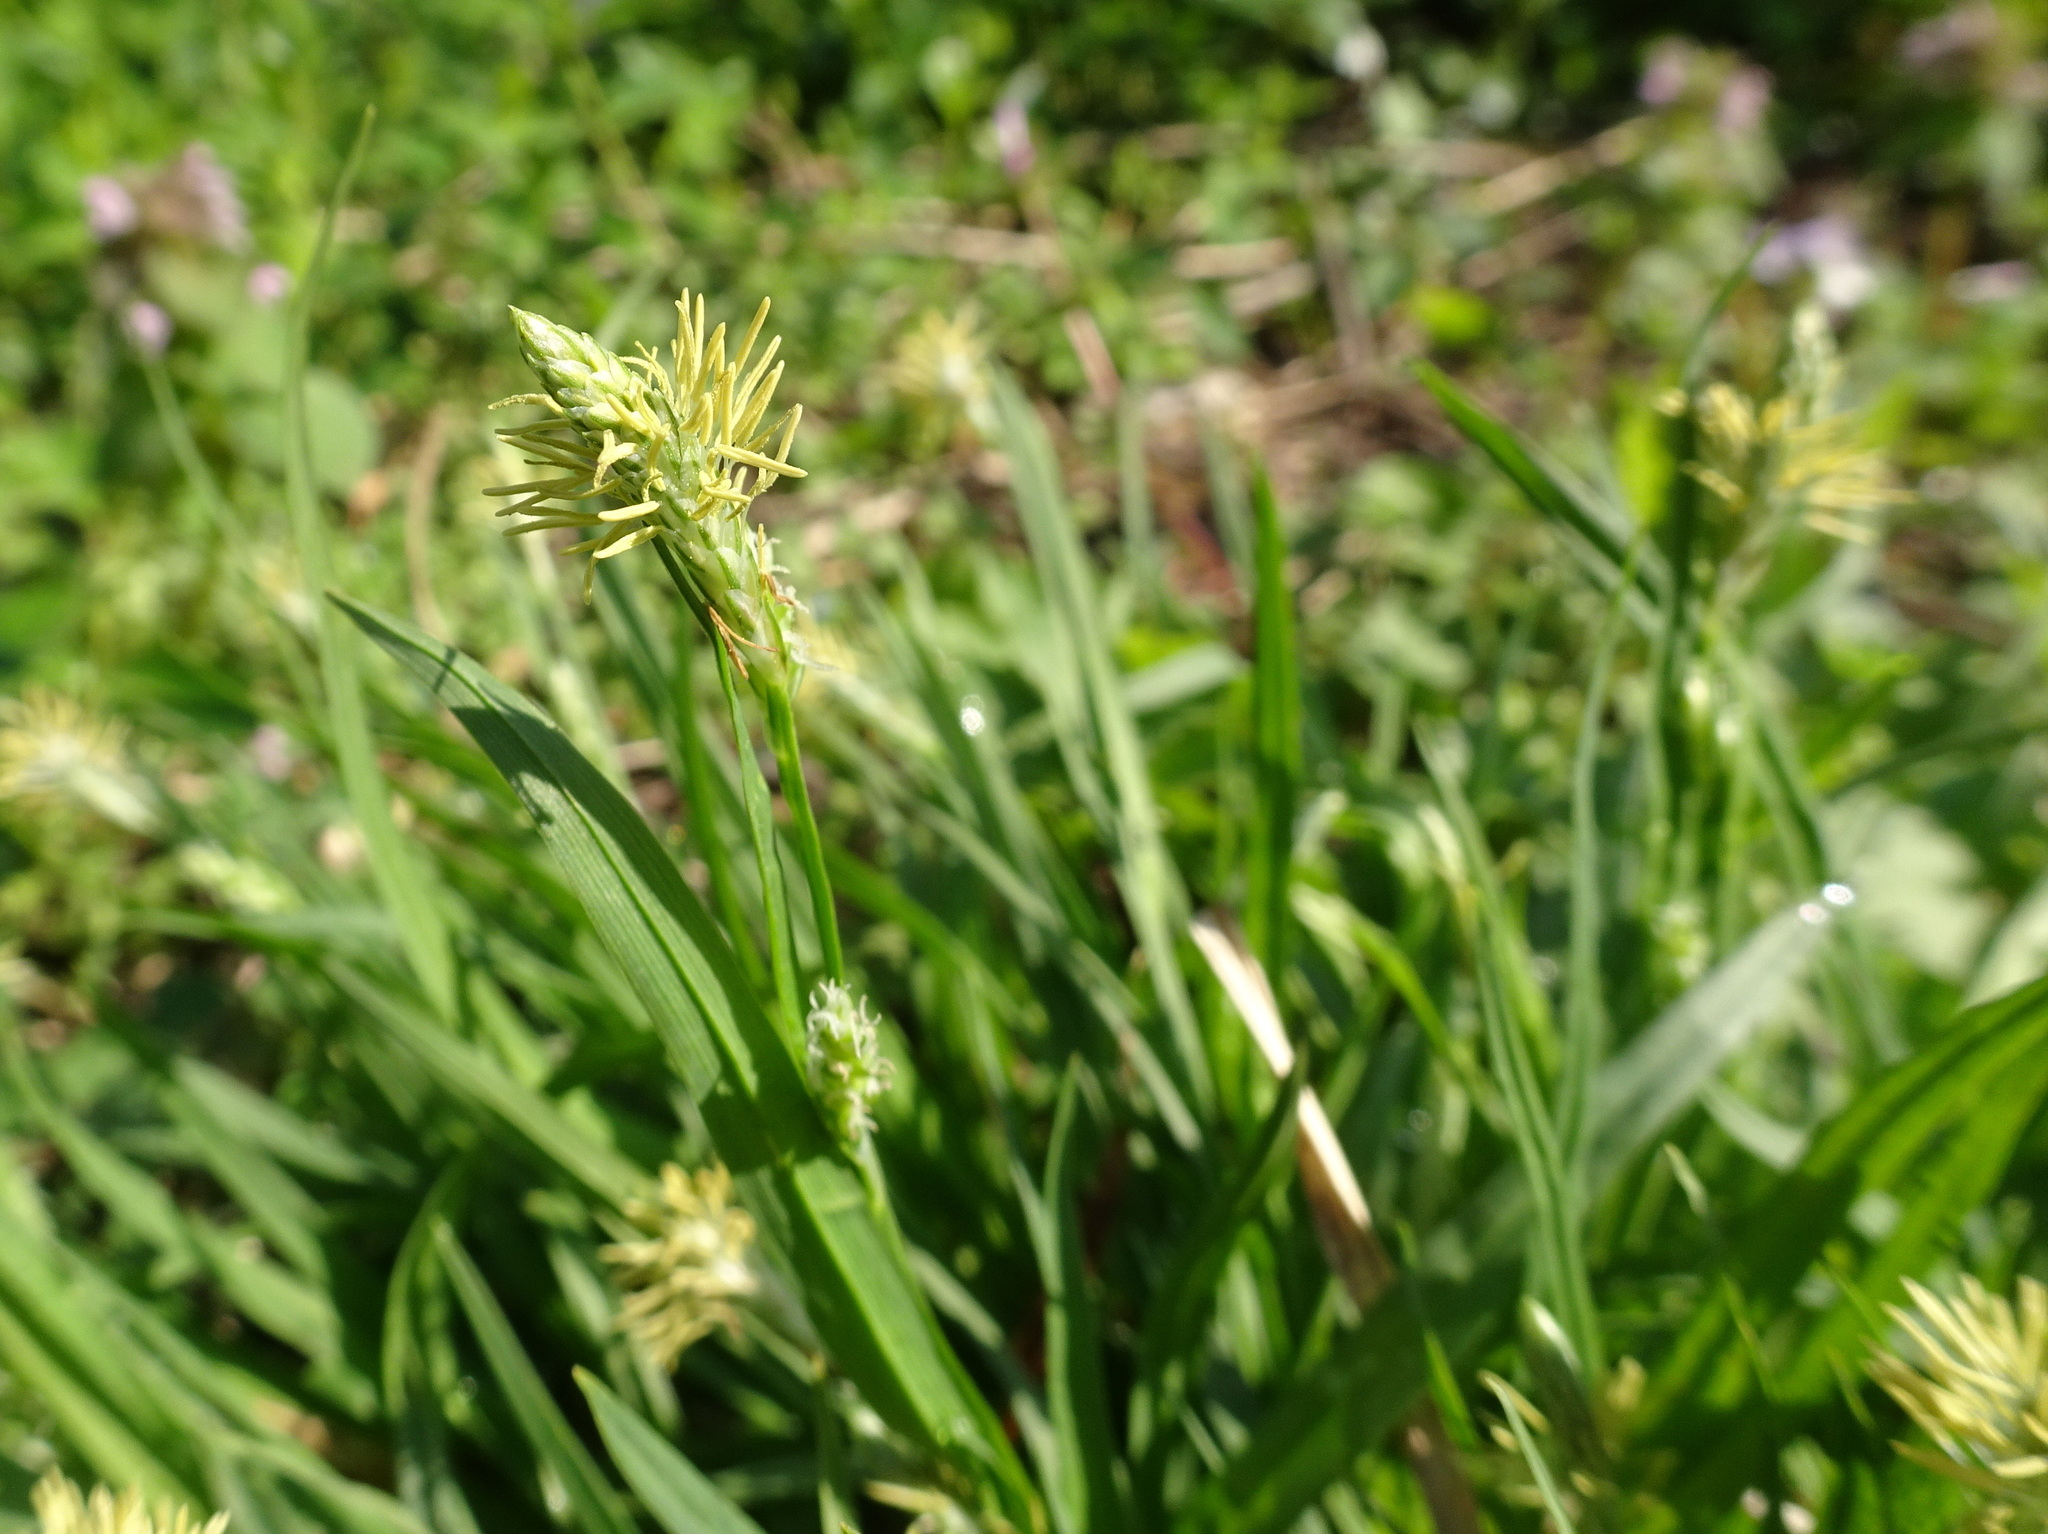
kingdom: Plantae
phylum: Tracheophyta
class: Liliopsida
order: Poales
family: Cyperaceae
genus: Carex
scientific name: Carex blanda
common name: Bland sedge
